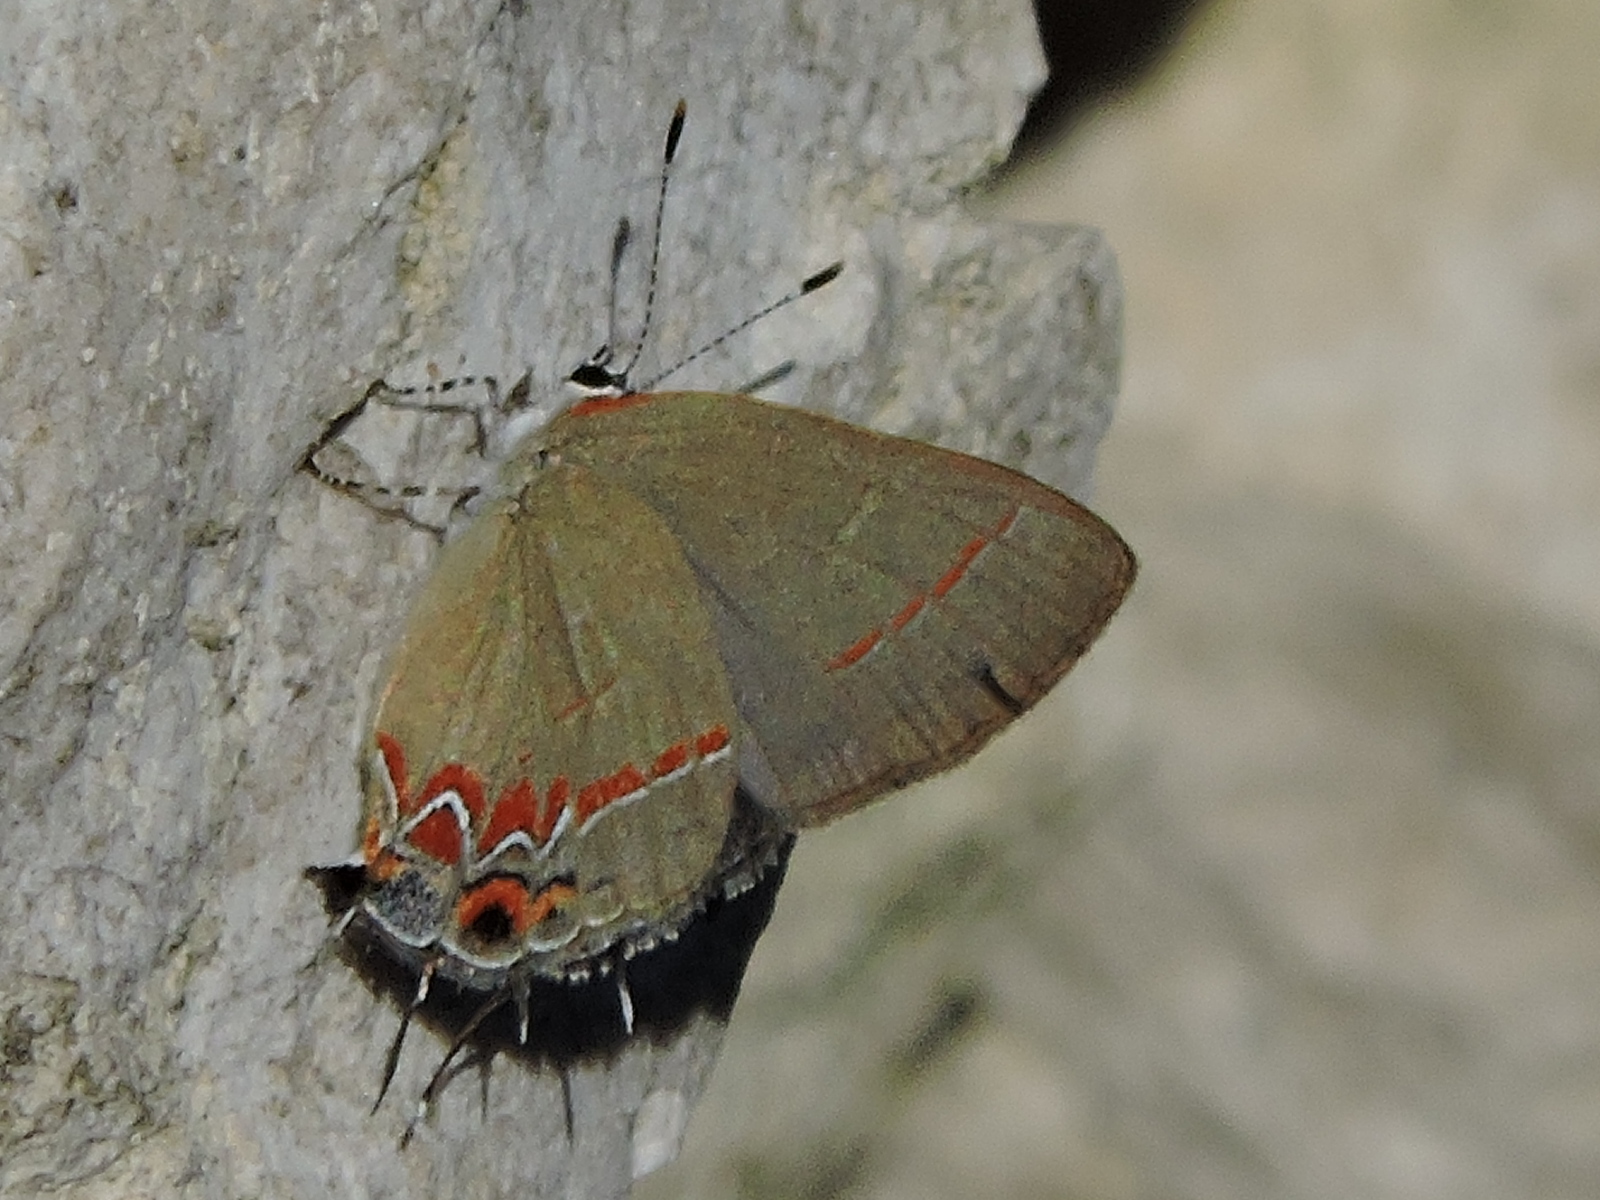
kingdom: Animalia
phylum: Arthropoda
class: Insecta
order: Lepidoptera
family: Lycaenidae
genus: Calycopis
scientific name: Calycopis isobeon
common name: Dusky-blue groundstreak
